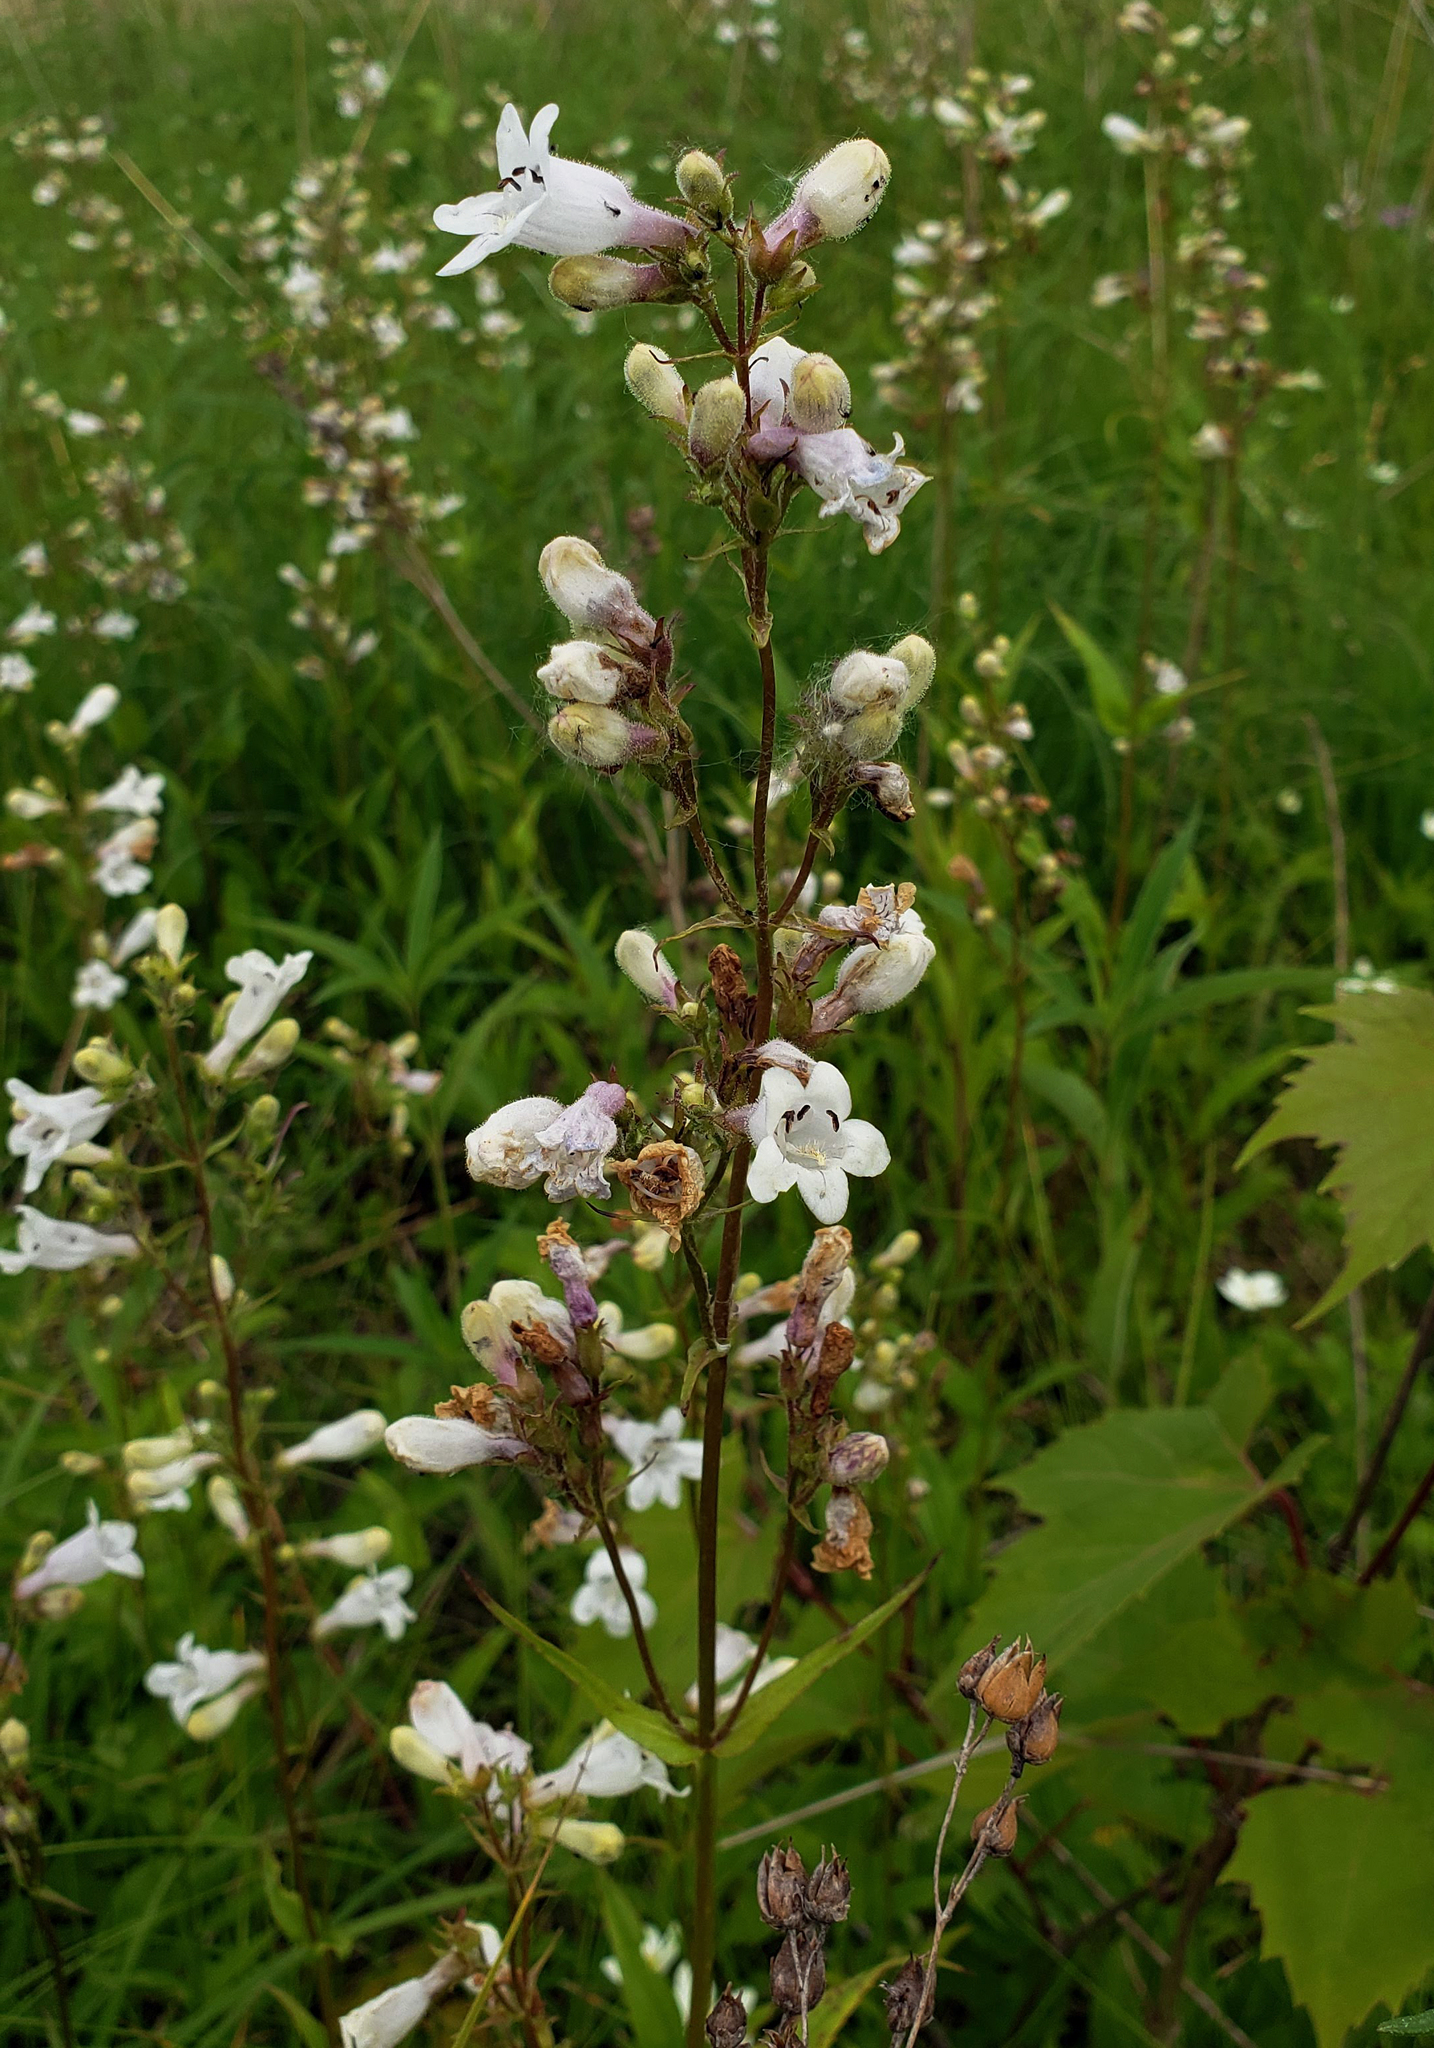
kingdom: Plantae
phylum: Tracheophyta
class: Magnoliopsida
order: Lamiales
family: Plantaginaceae
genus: Penstemon
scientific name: Penstemon digitalis
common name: Foxglove beardtongue
